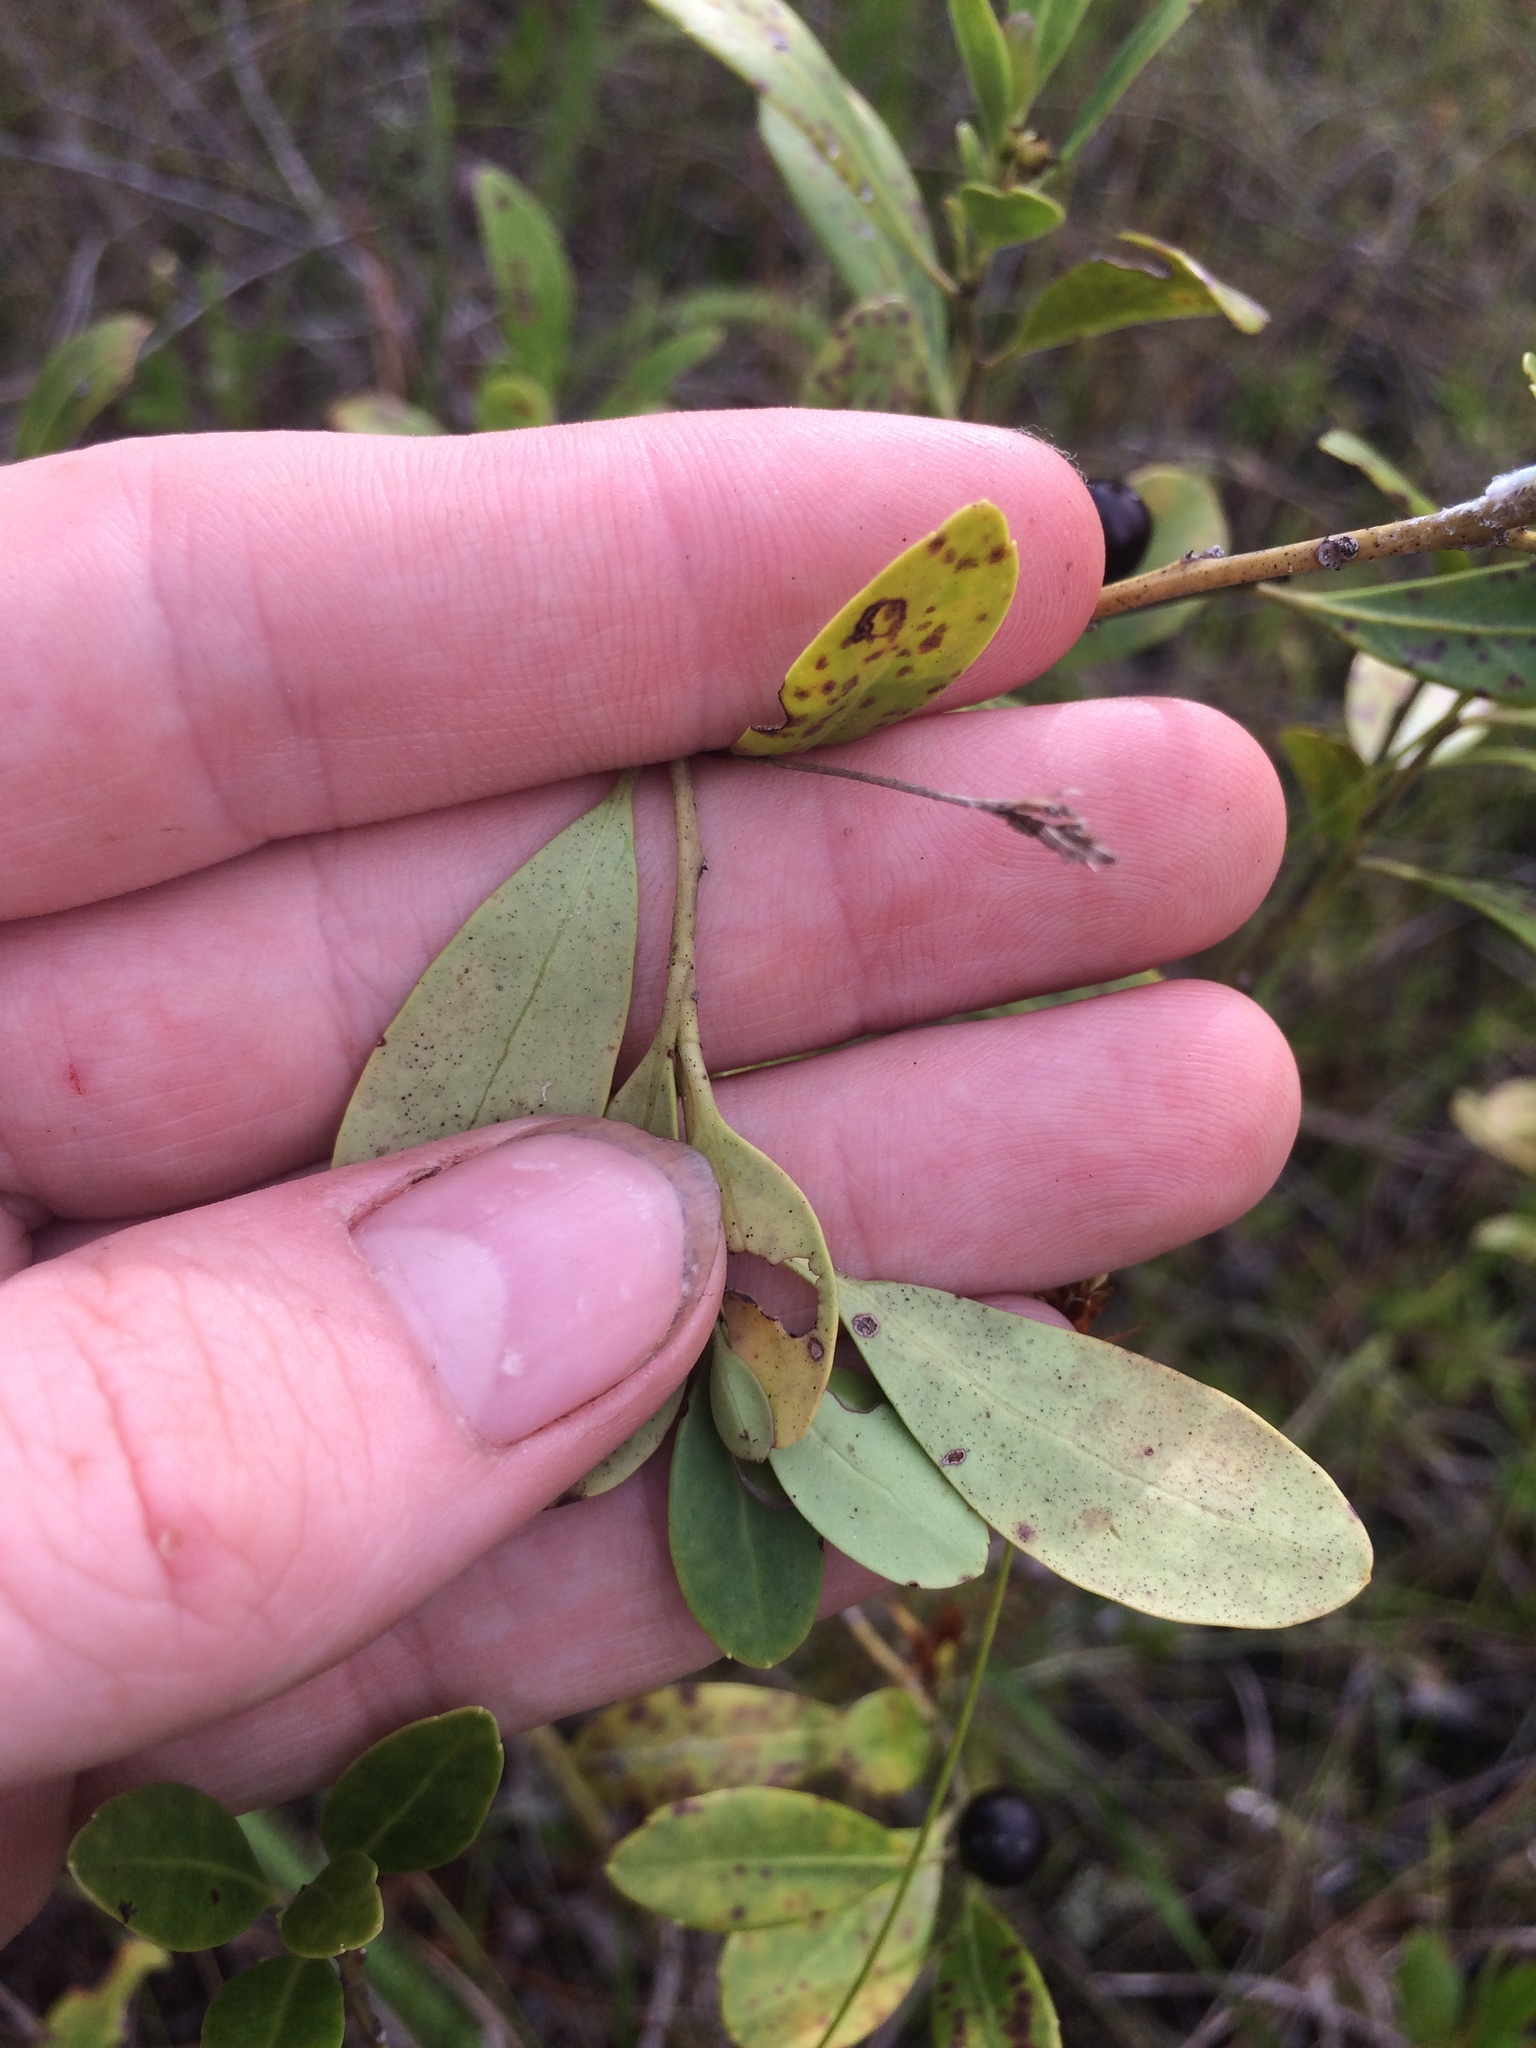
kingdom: Plantae
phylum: Tracheophyta
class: Magnoliopsida
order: Aquifoliales
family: Aquifoliaceae
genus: Ilex
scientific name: Ilex glabra
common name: Bitter gallberry
